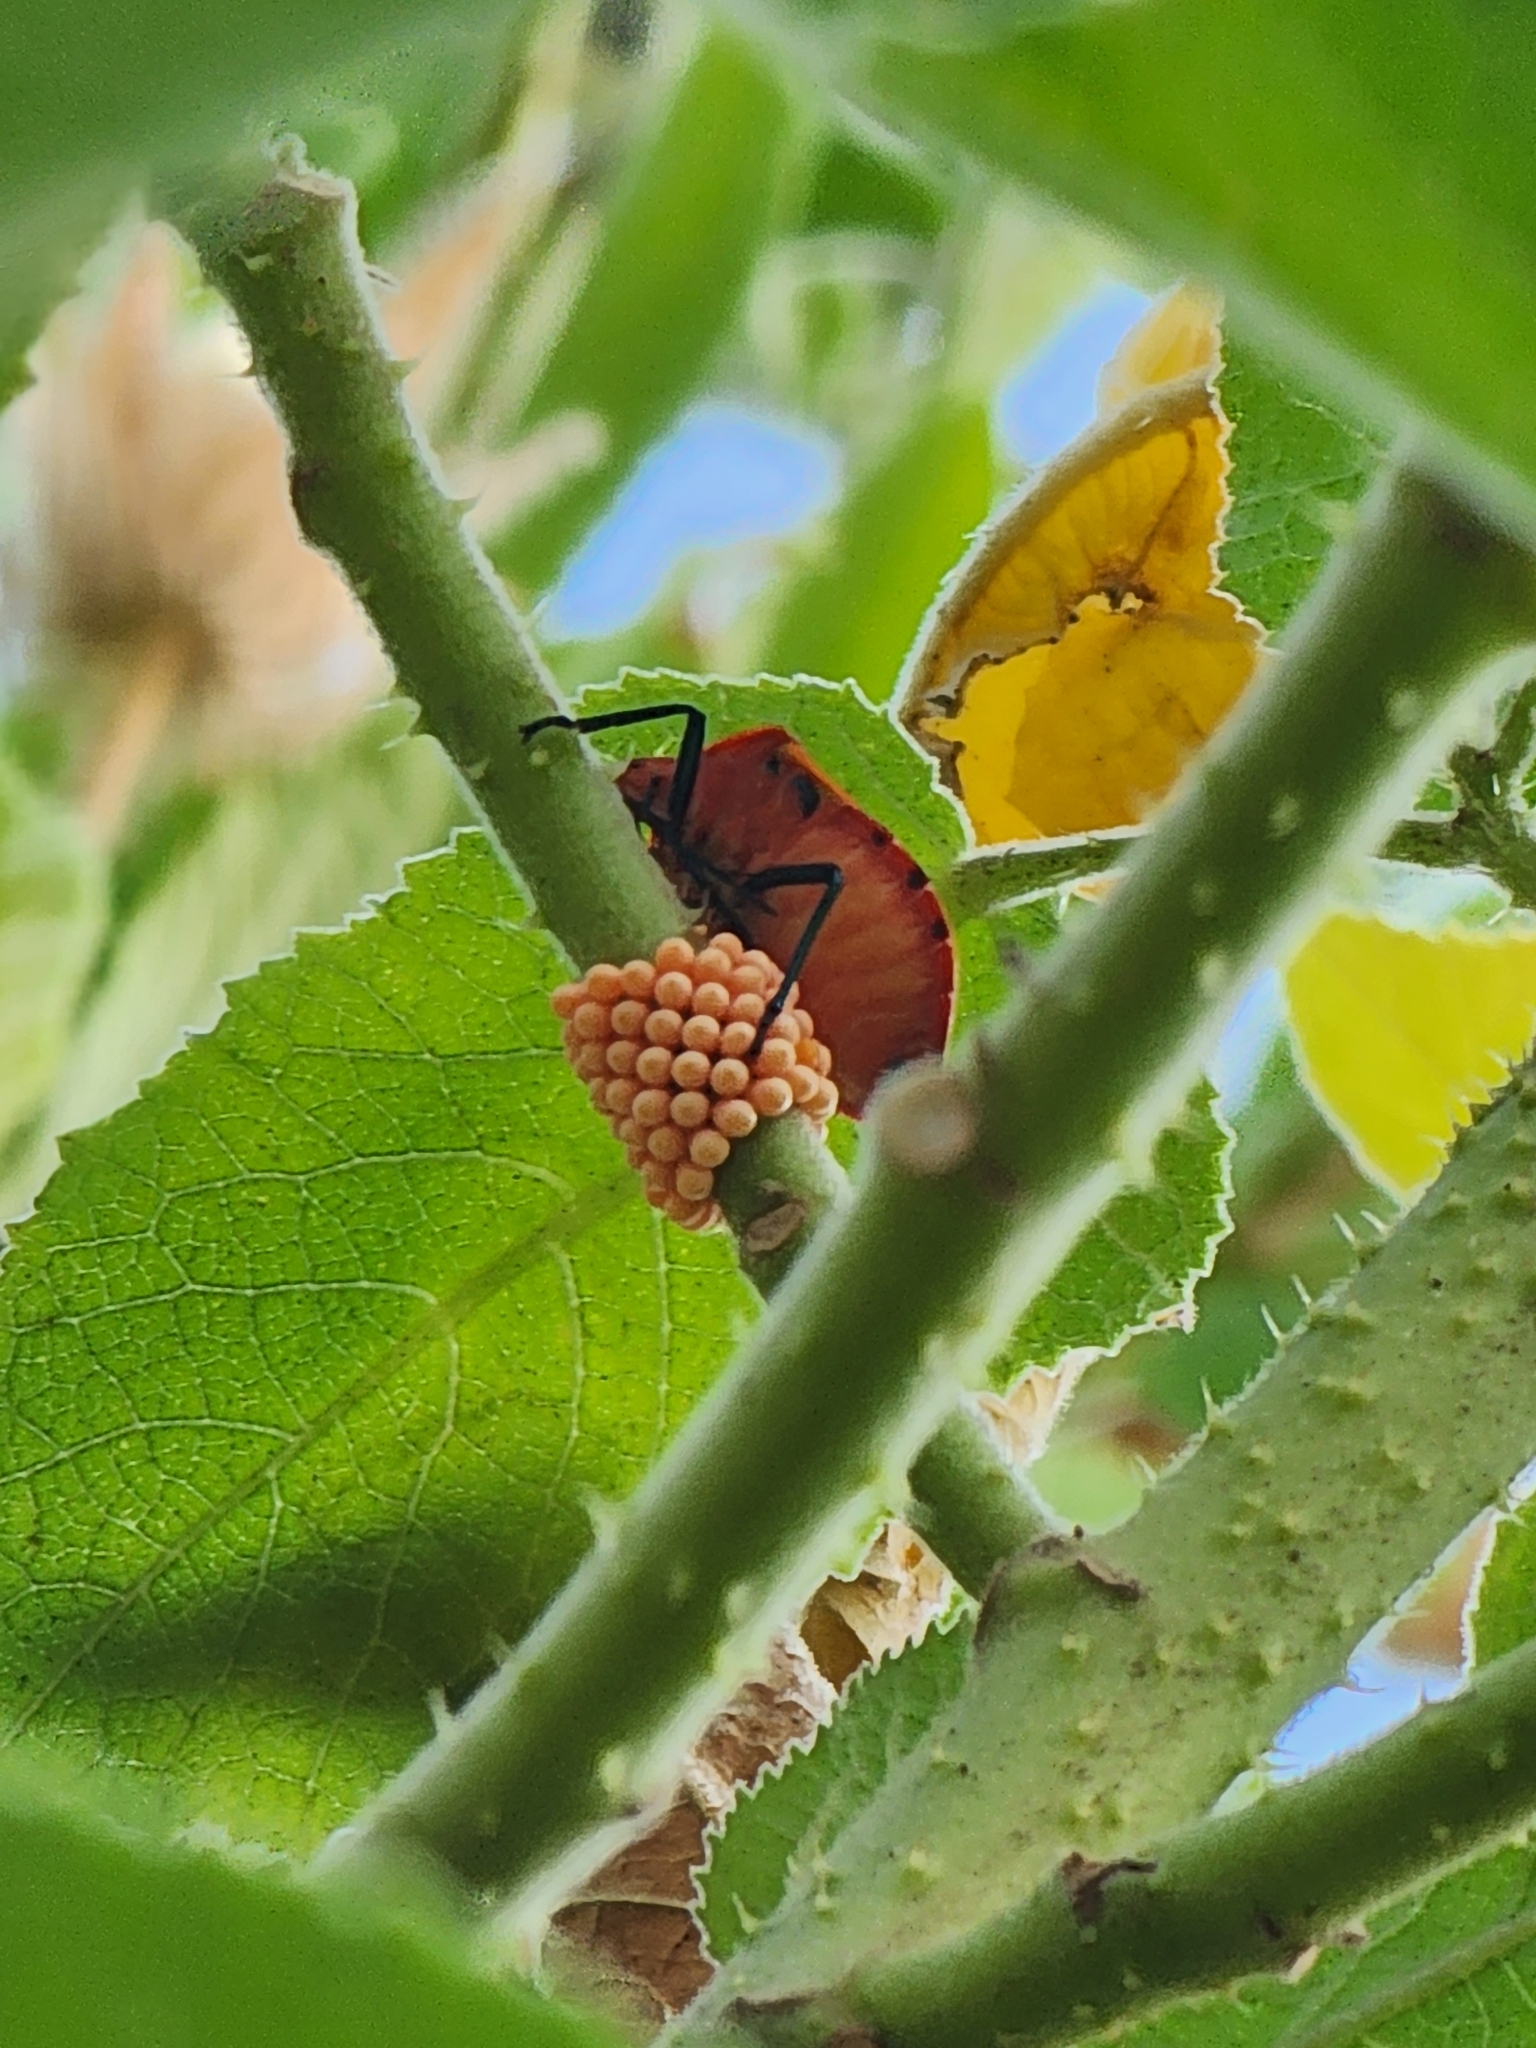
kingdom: Animalia
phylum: Arthropoda
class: Insecta
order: Hemiptera
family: Scutelleridae
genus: Tectocoris
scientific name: Tectocoris diophthalmus
